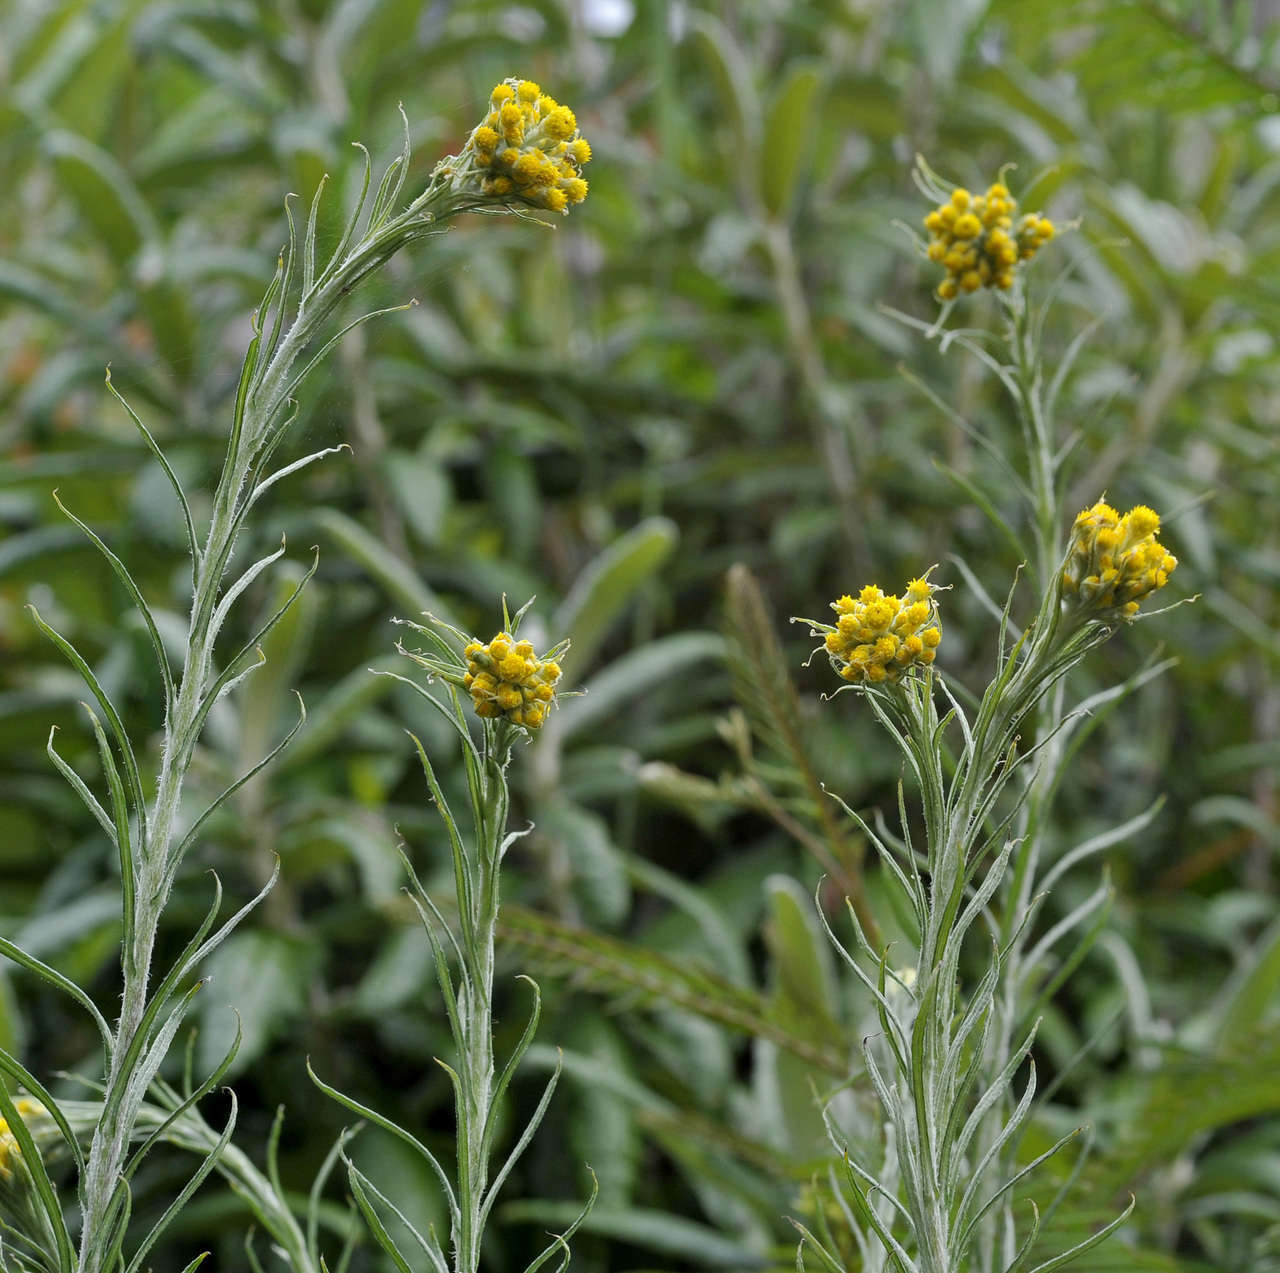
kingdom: Plantae
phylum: Tracheophyta
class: Magnoliopsida
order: Asterales
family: Asteraceae
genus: Chrysocephalum
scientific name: Chrysocephalum semipapposum
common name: Clustered everlasting
